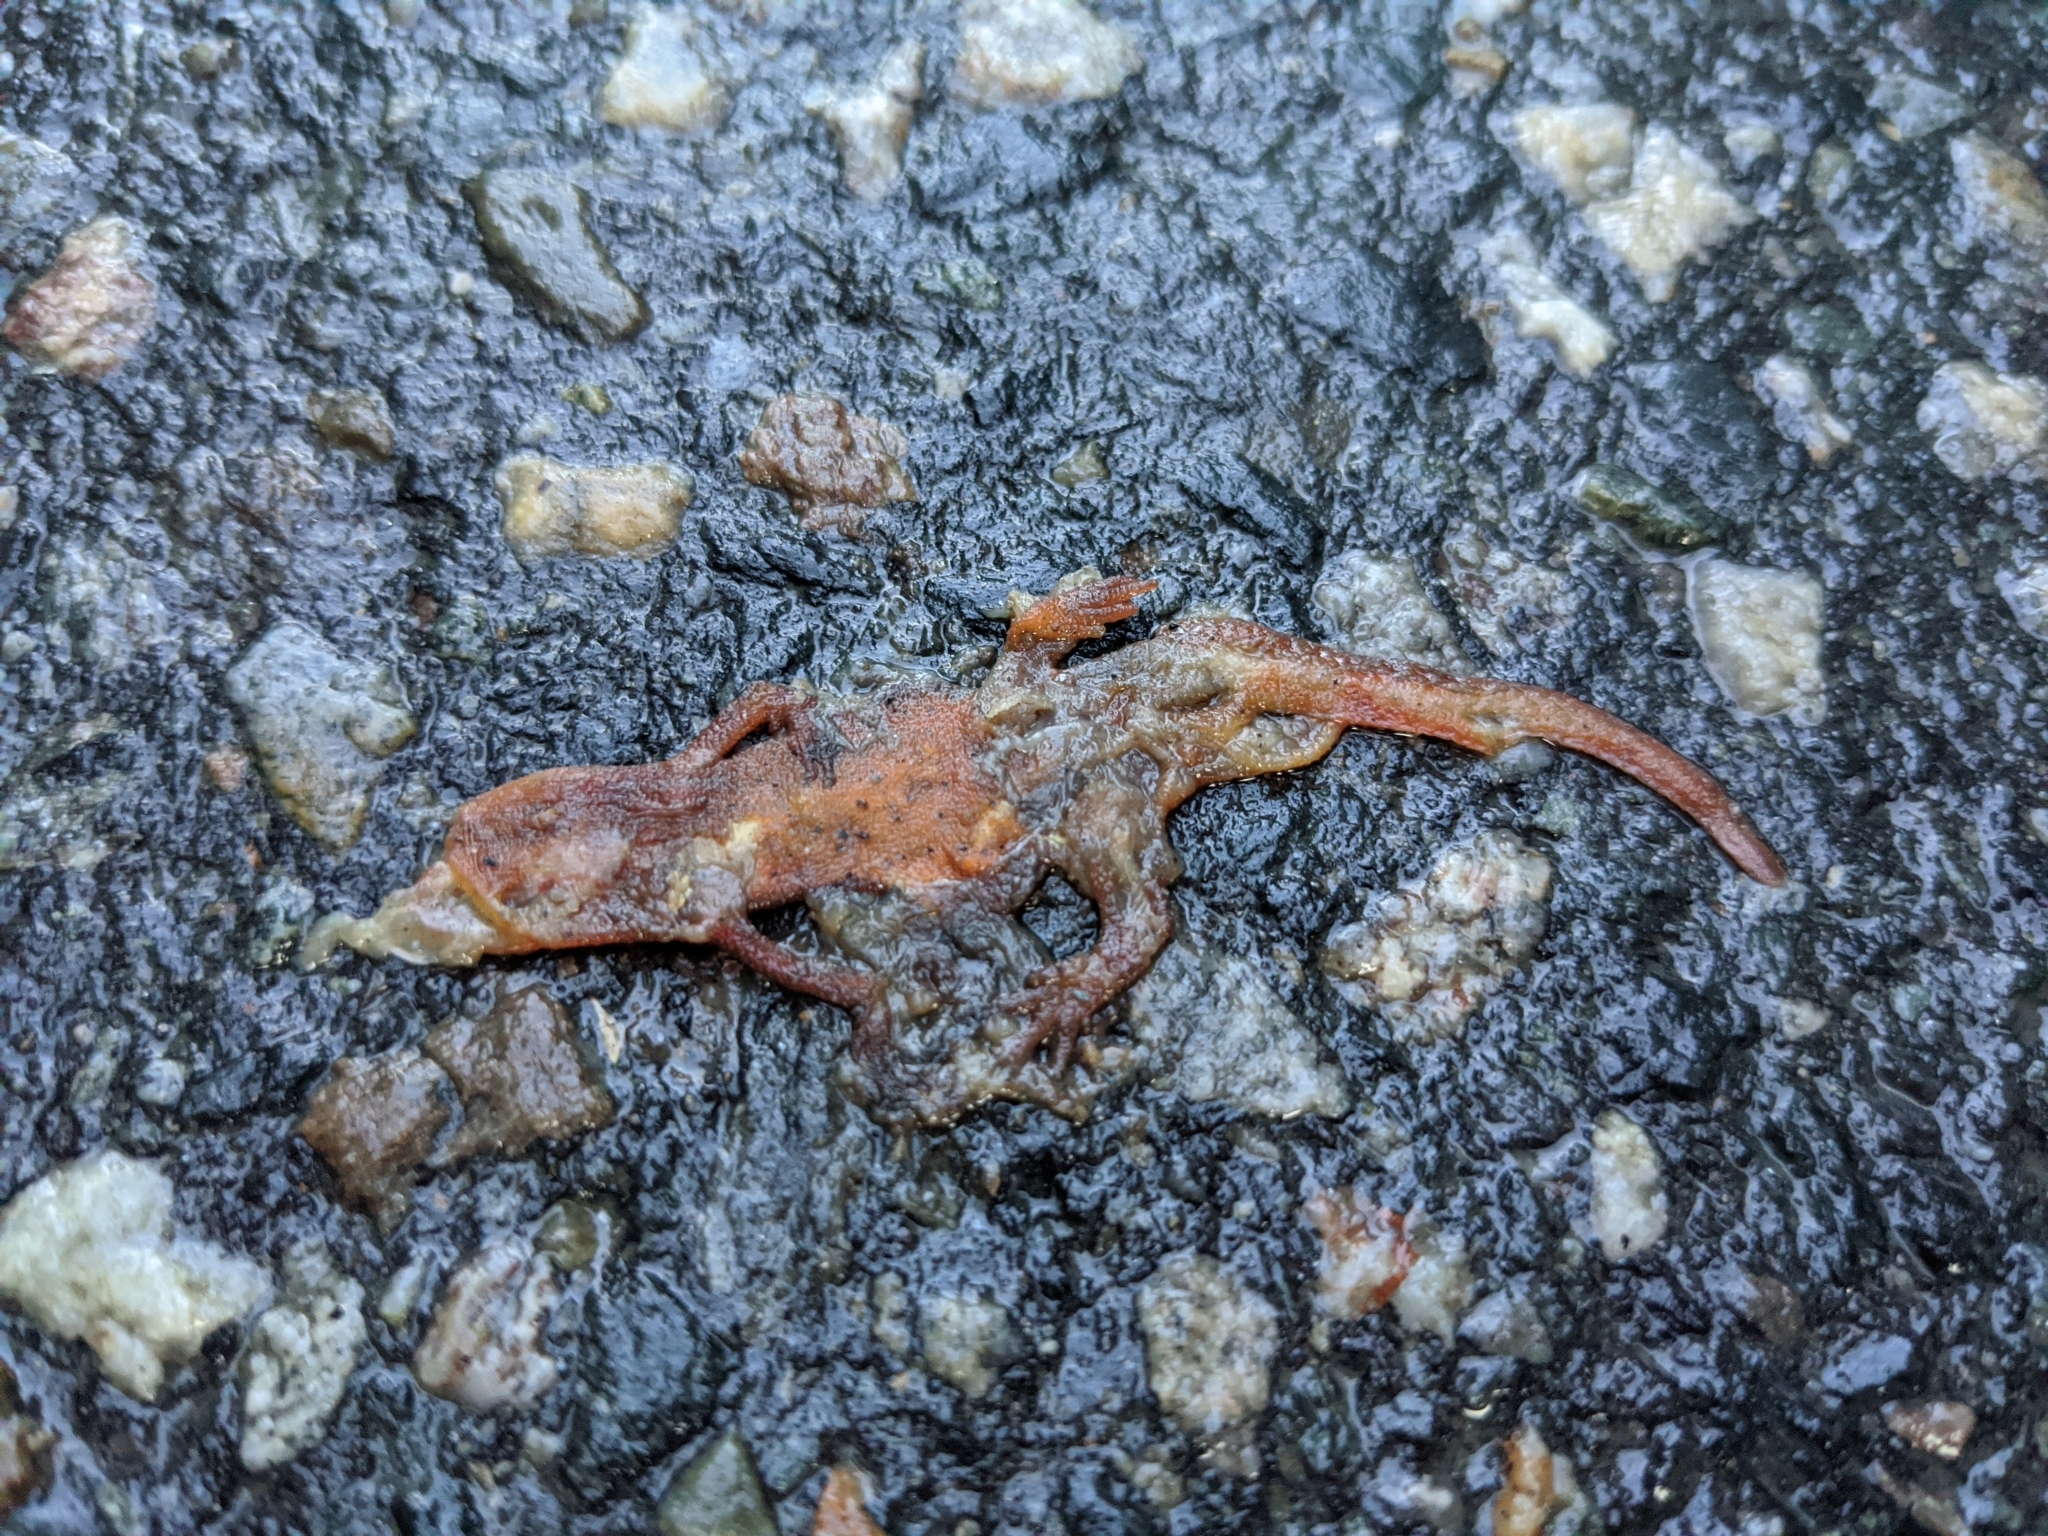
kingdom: Animalia
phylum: Chordata
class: Amphibia
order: Caudata
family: Salamandridae
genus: Notophthalmus
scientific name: Notophthalmus viridescens
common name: Eastern newt
